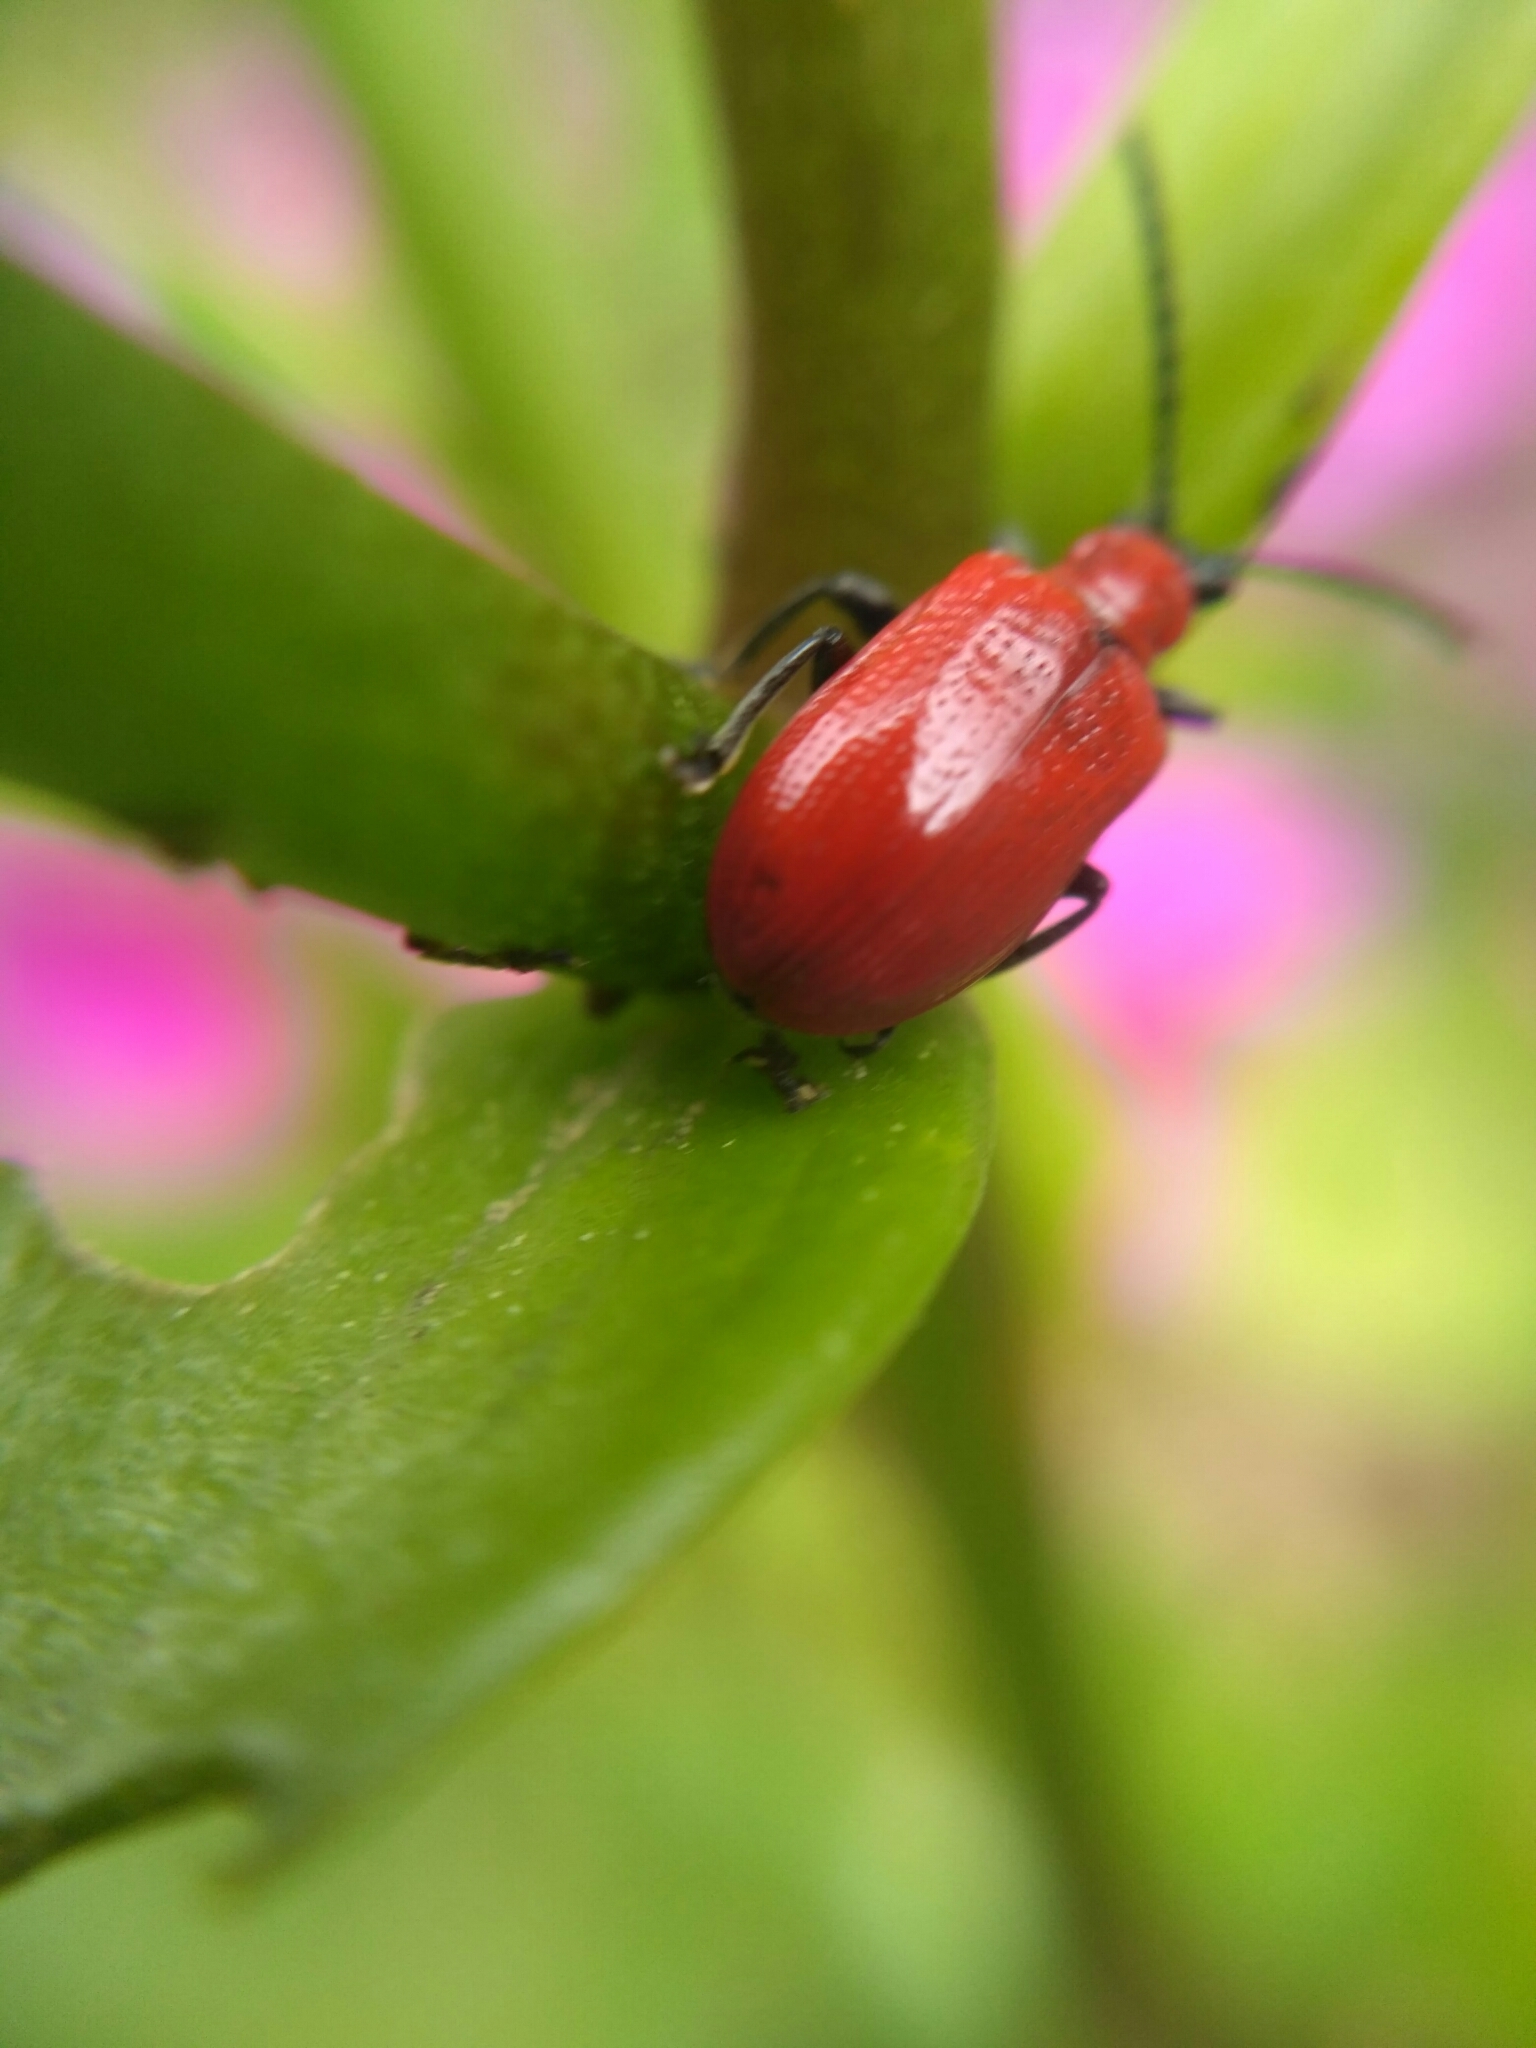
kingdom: Animalia
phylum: Arthropoda
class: Insecta
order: Coleoptera
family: Chrysomelidae
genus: Lilioceris
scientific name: Lilioceris lilii
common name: Lily beetle
